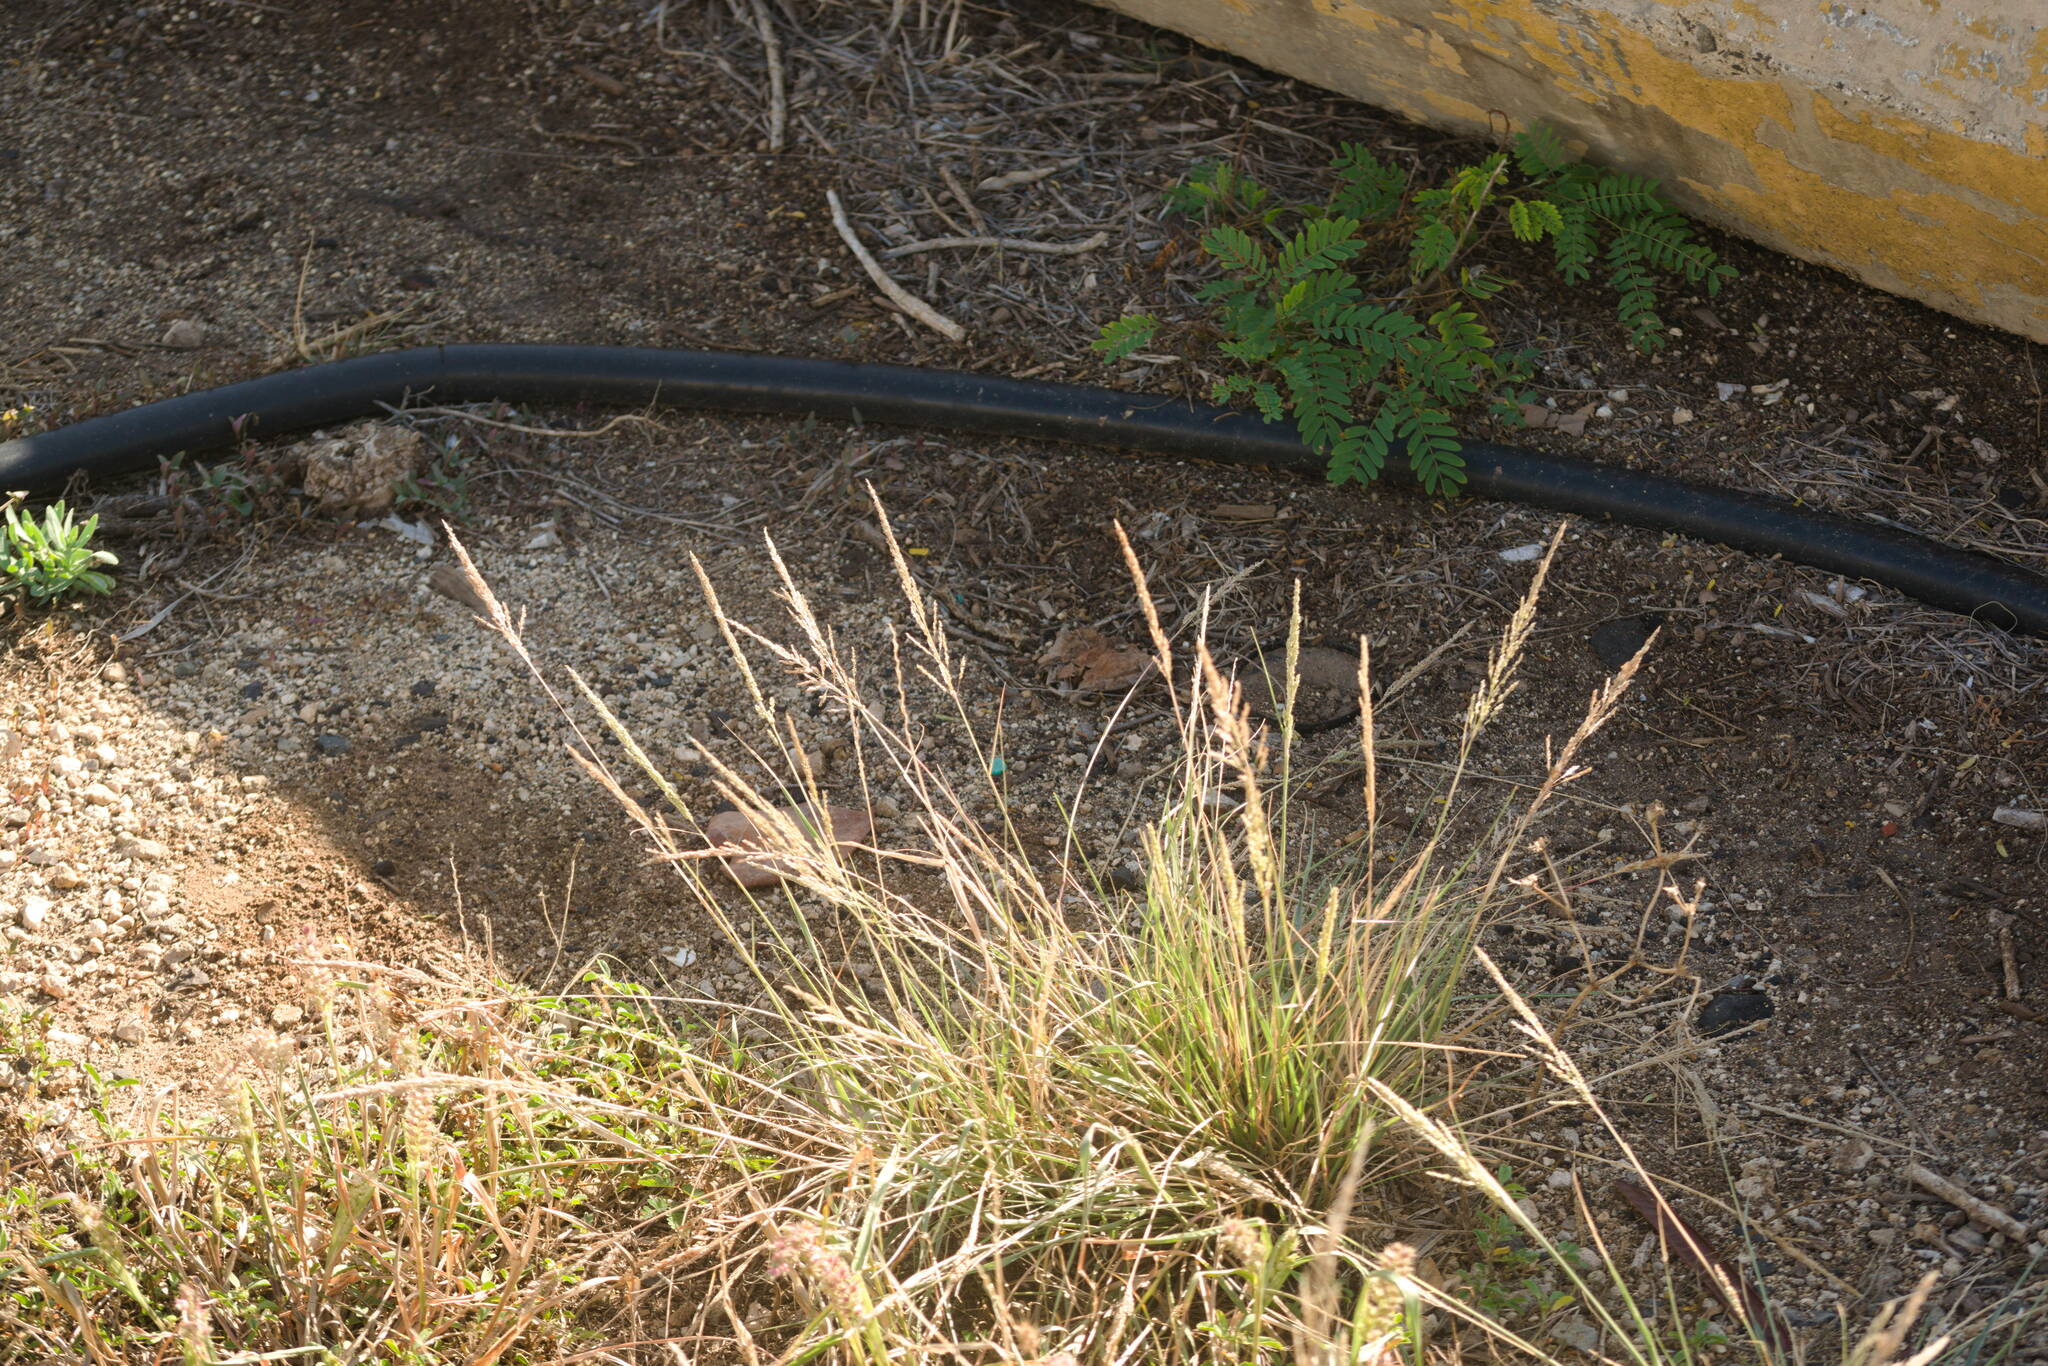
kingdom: Plantae
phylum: Tracheophyta
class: Liliopsida
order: Poales
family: Poaceae
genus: Sporobolus
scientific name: Sporobolus domingensis
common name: Coral dropseed
